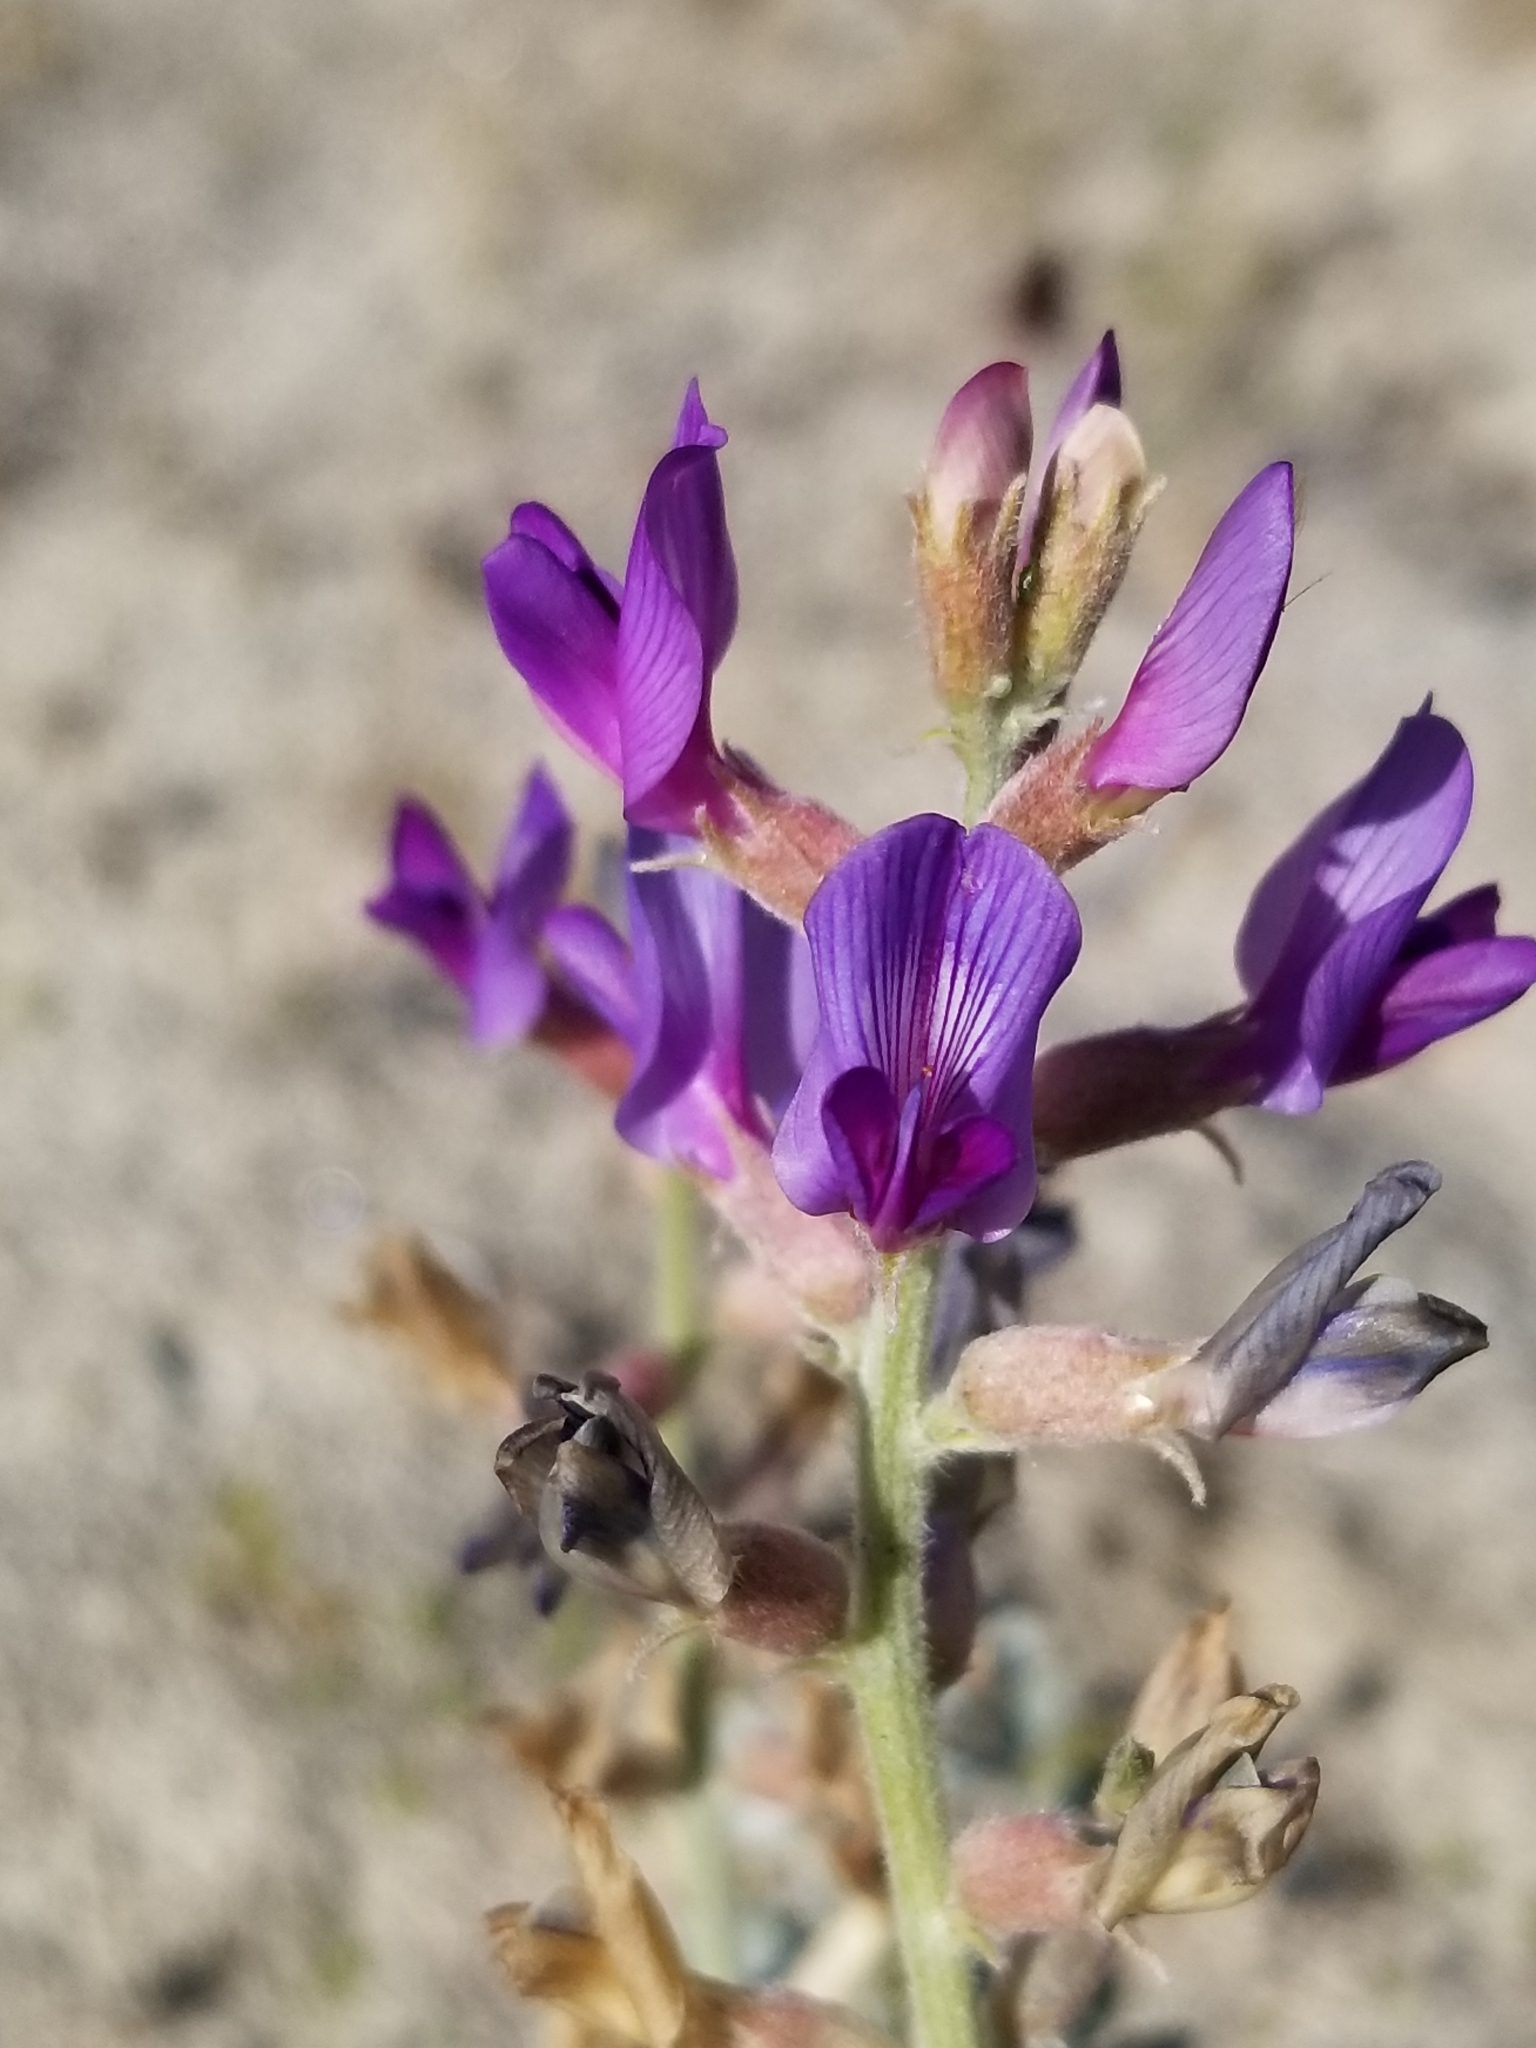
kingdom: Plantae
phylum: Tracheophyta
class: Magnoliopsida
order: Fabales
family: Fabaceae
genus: Astragalus
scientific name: Astragalus lentiginosus
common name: Freckled milkvetch
